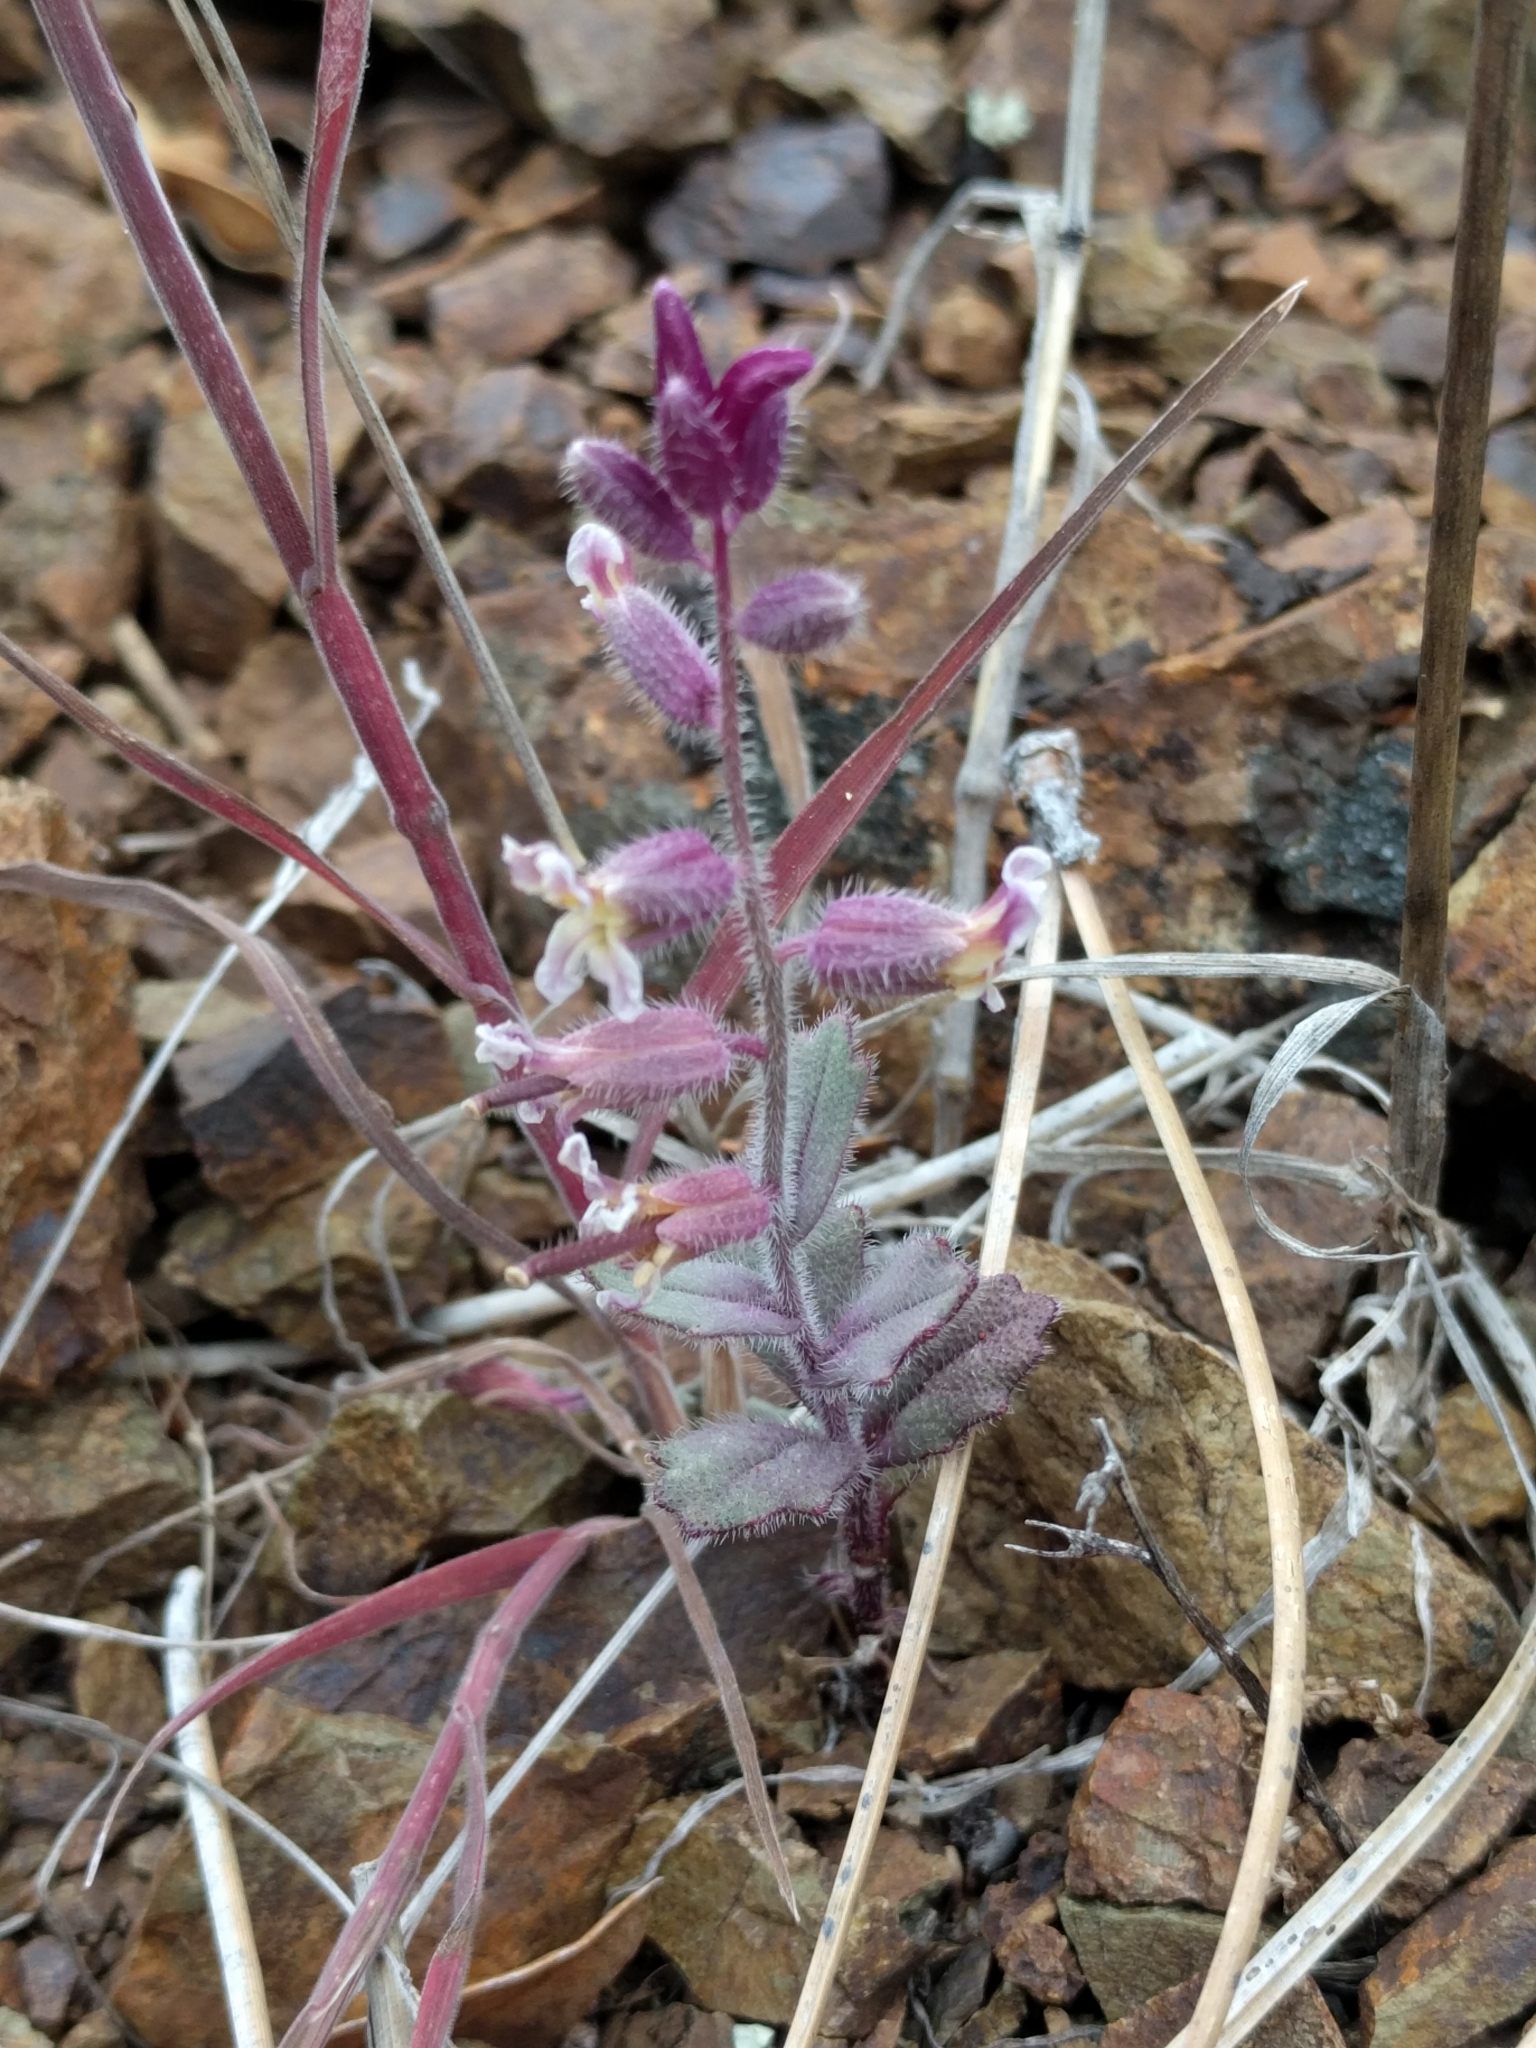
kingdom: Plantae
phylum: Tracheophyta
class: Magnoliopsida
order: Brassicales
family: Brassicaceae
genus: Streptanthus
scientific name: Streptanthus hispidus
